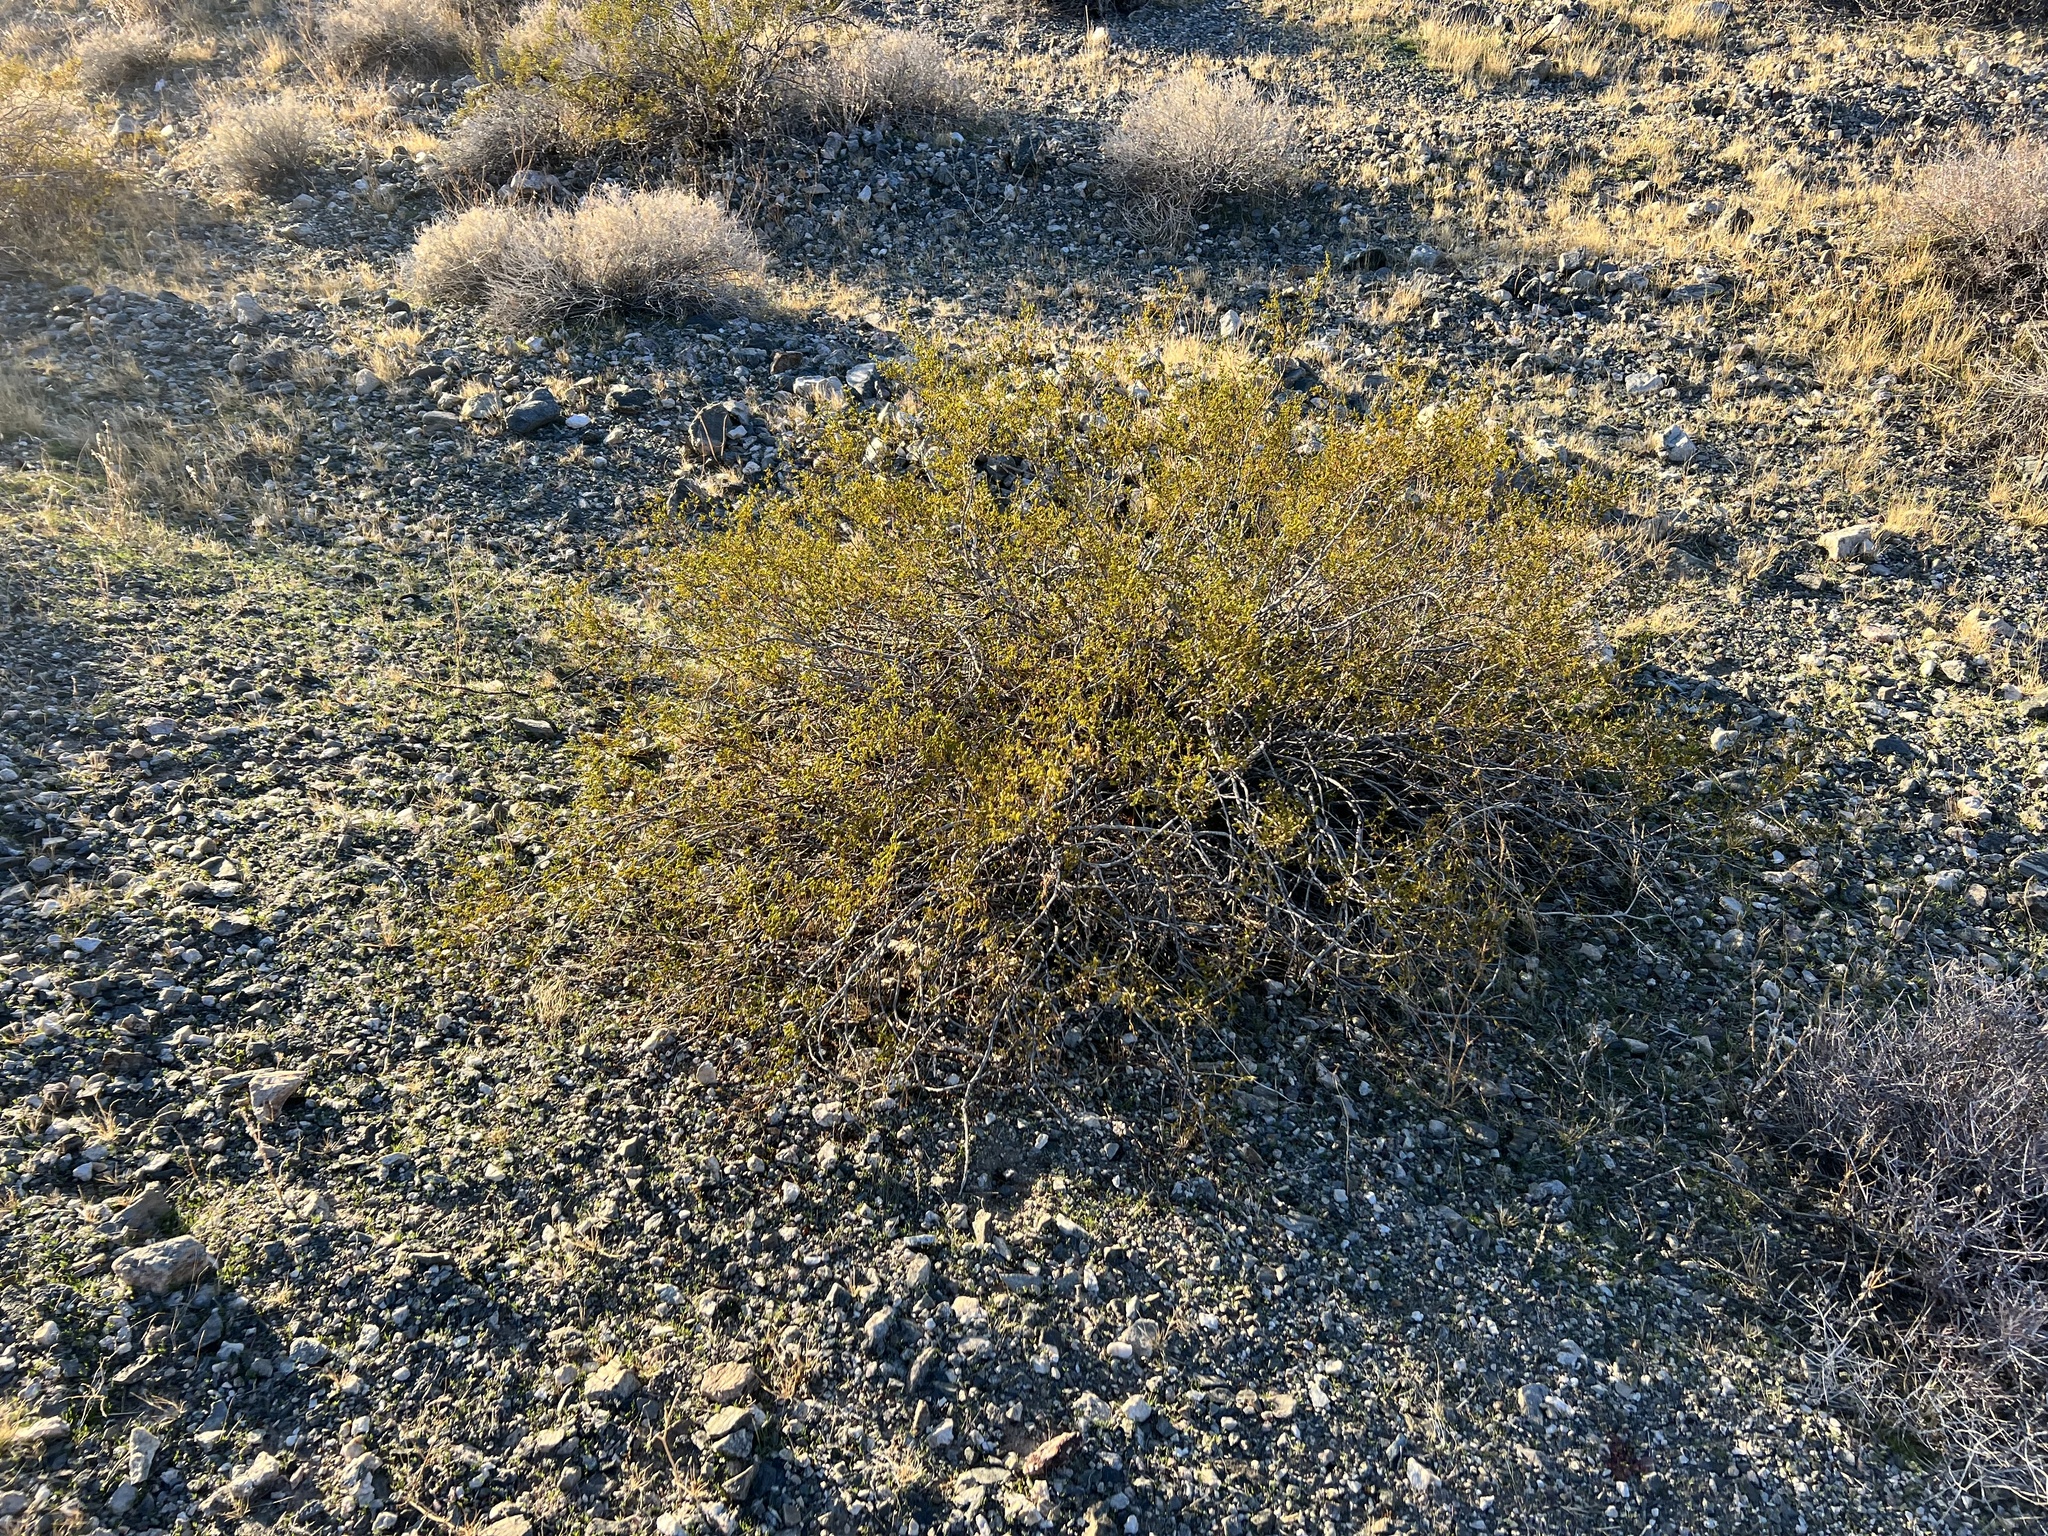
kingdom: Plantae
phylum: Tracheophyta
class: Magnoliopsida
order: Zygophyllales
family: Zygophyllaceae
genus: Larrea
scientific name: Larrea tridentata
